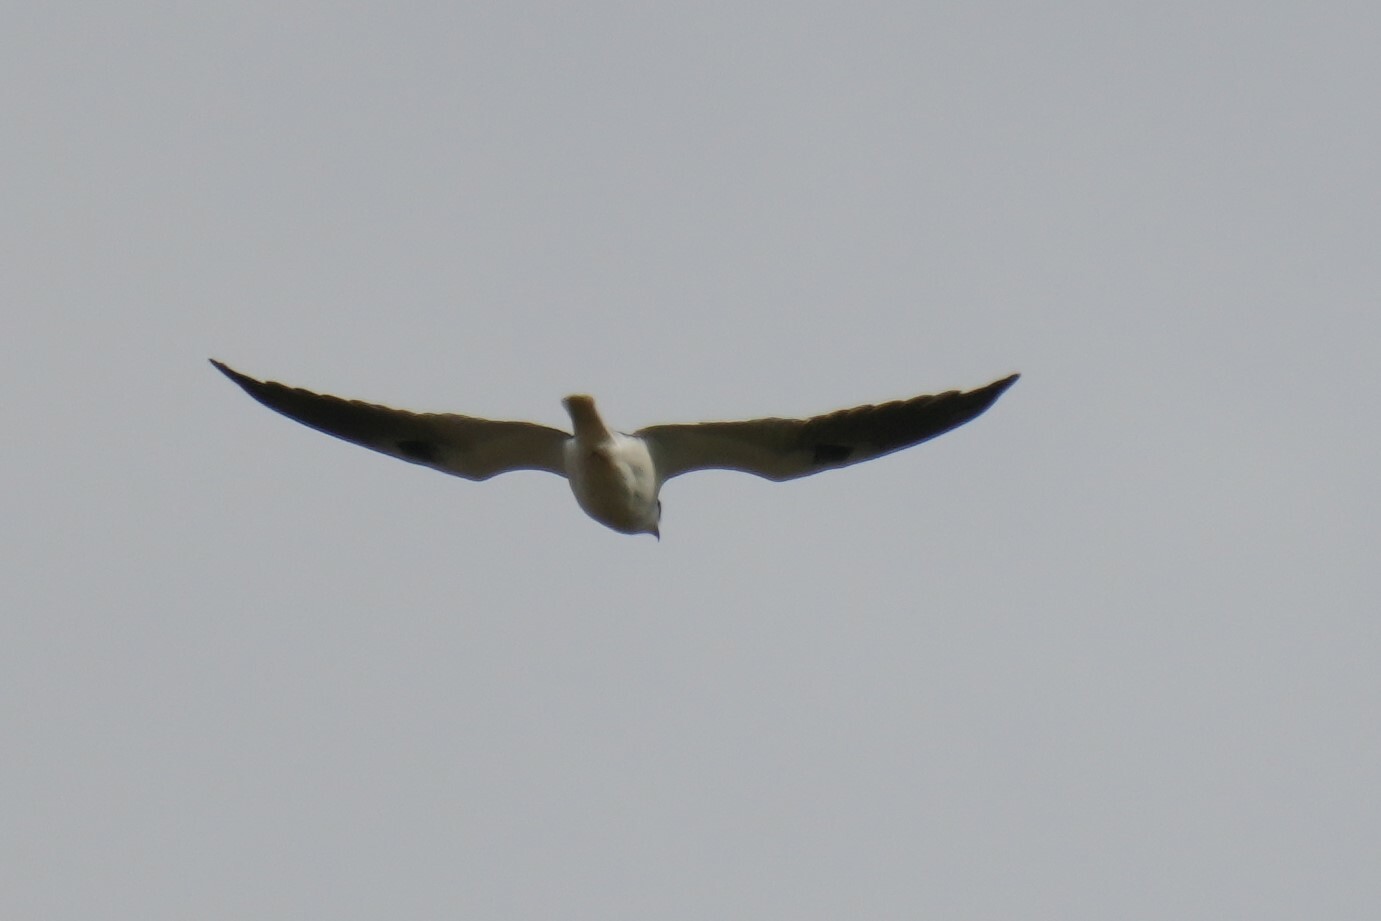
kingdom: Animalia
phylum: Chordata
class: Aves
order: Accipitriformes
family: Accipitridae
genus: Elanus
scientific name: Elanus leucurus
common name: White-tailed kite
